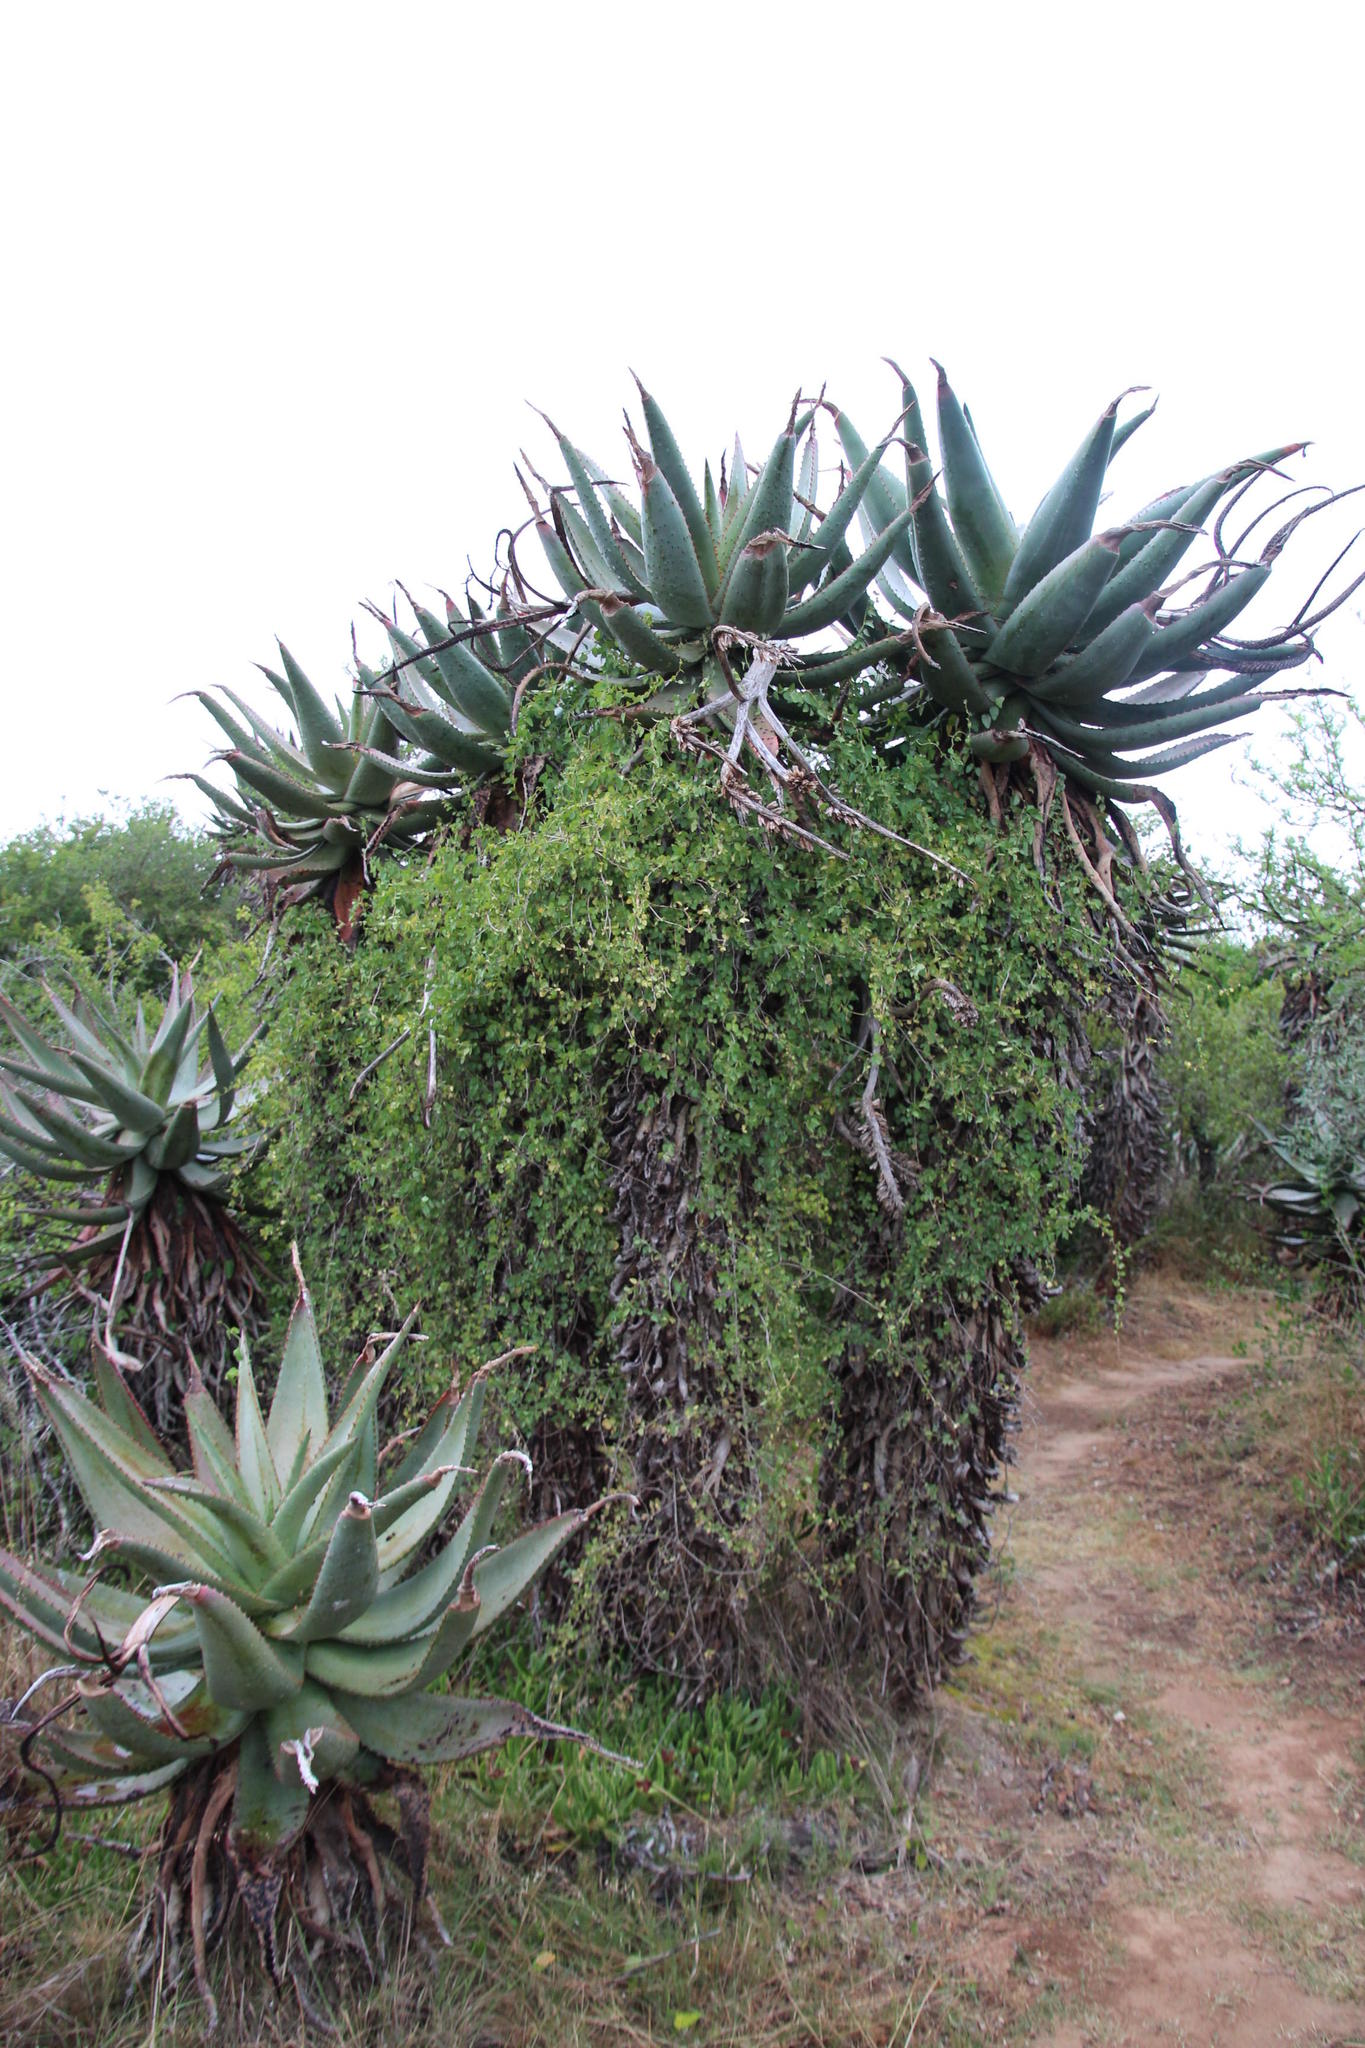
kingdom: Plantae
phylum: Tracheophyta
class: Magnoliopsida
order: Ranunculales
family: Menispermaceae
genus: Cissampelos
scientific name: Cissampelos capensis
